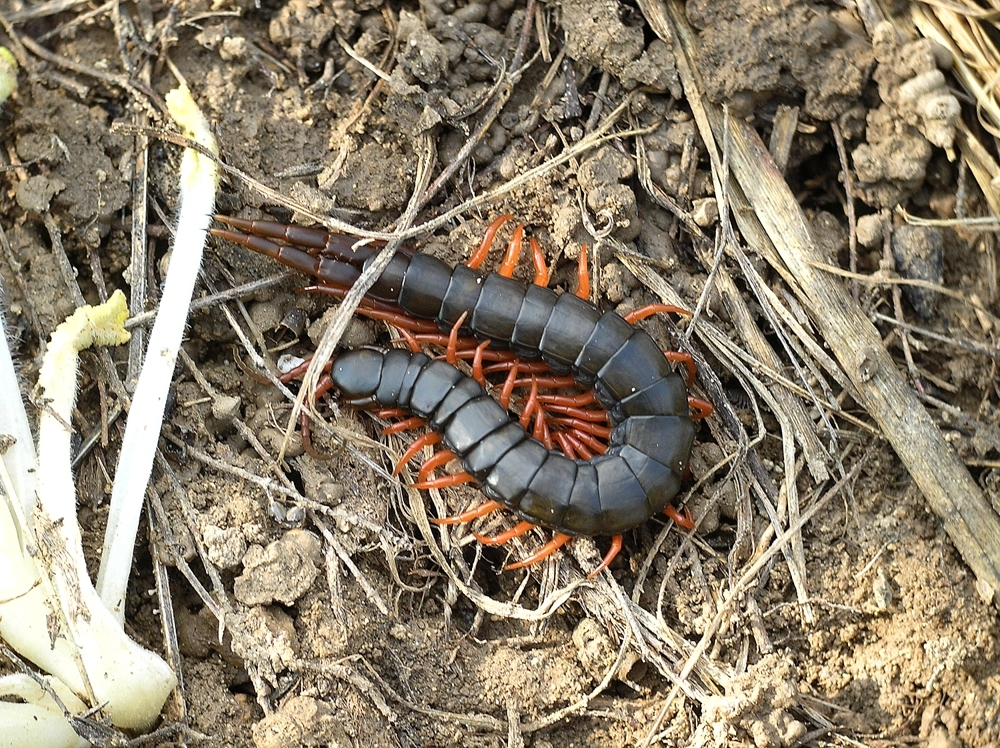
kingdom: Animalia
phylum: Arthropoda
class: Chilopoda
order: Scolopendromorpha
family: Scolopendridae
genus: Scolopendra
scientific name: Scolopendra cingulata
